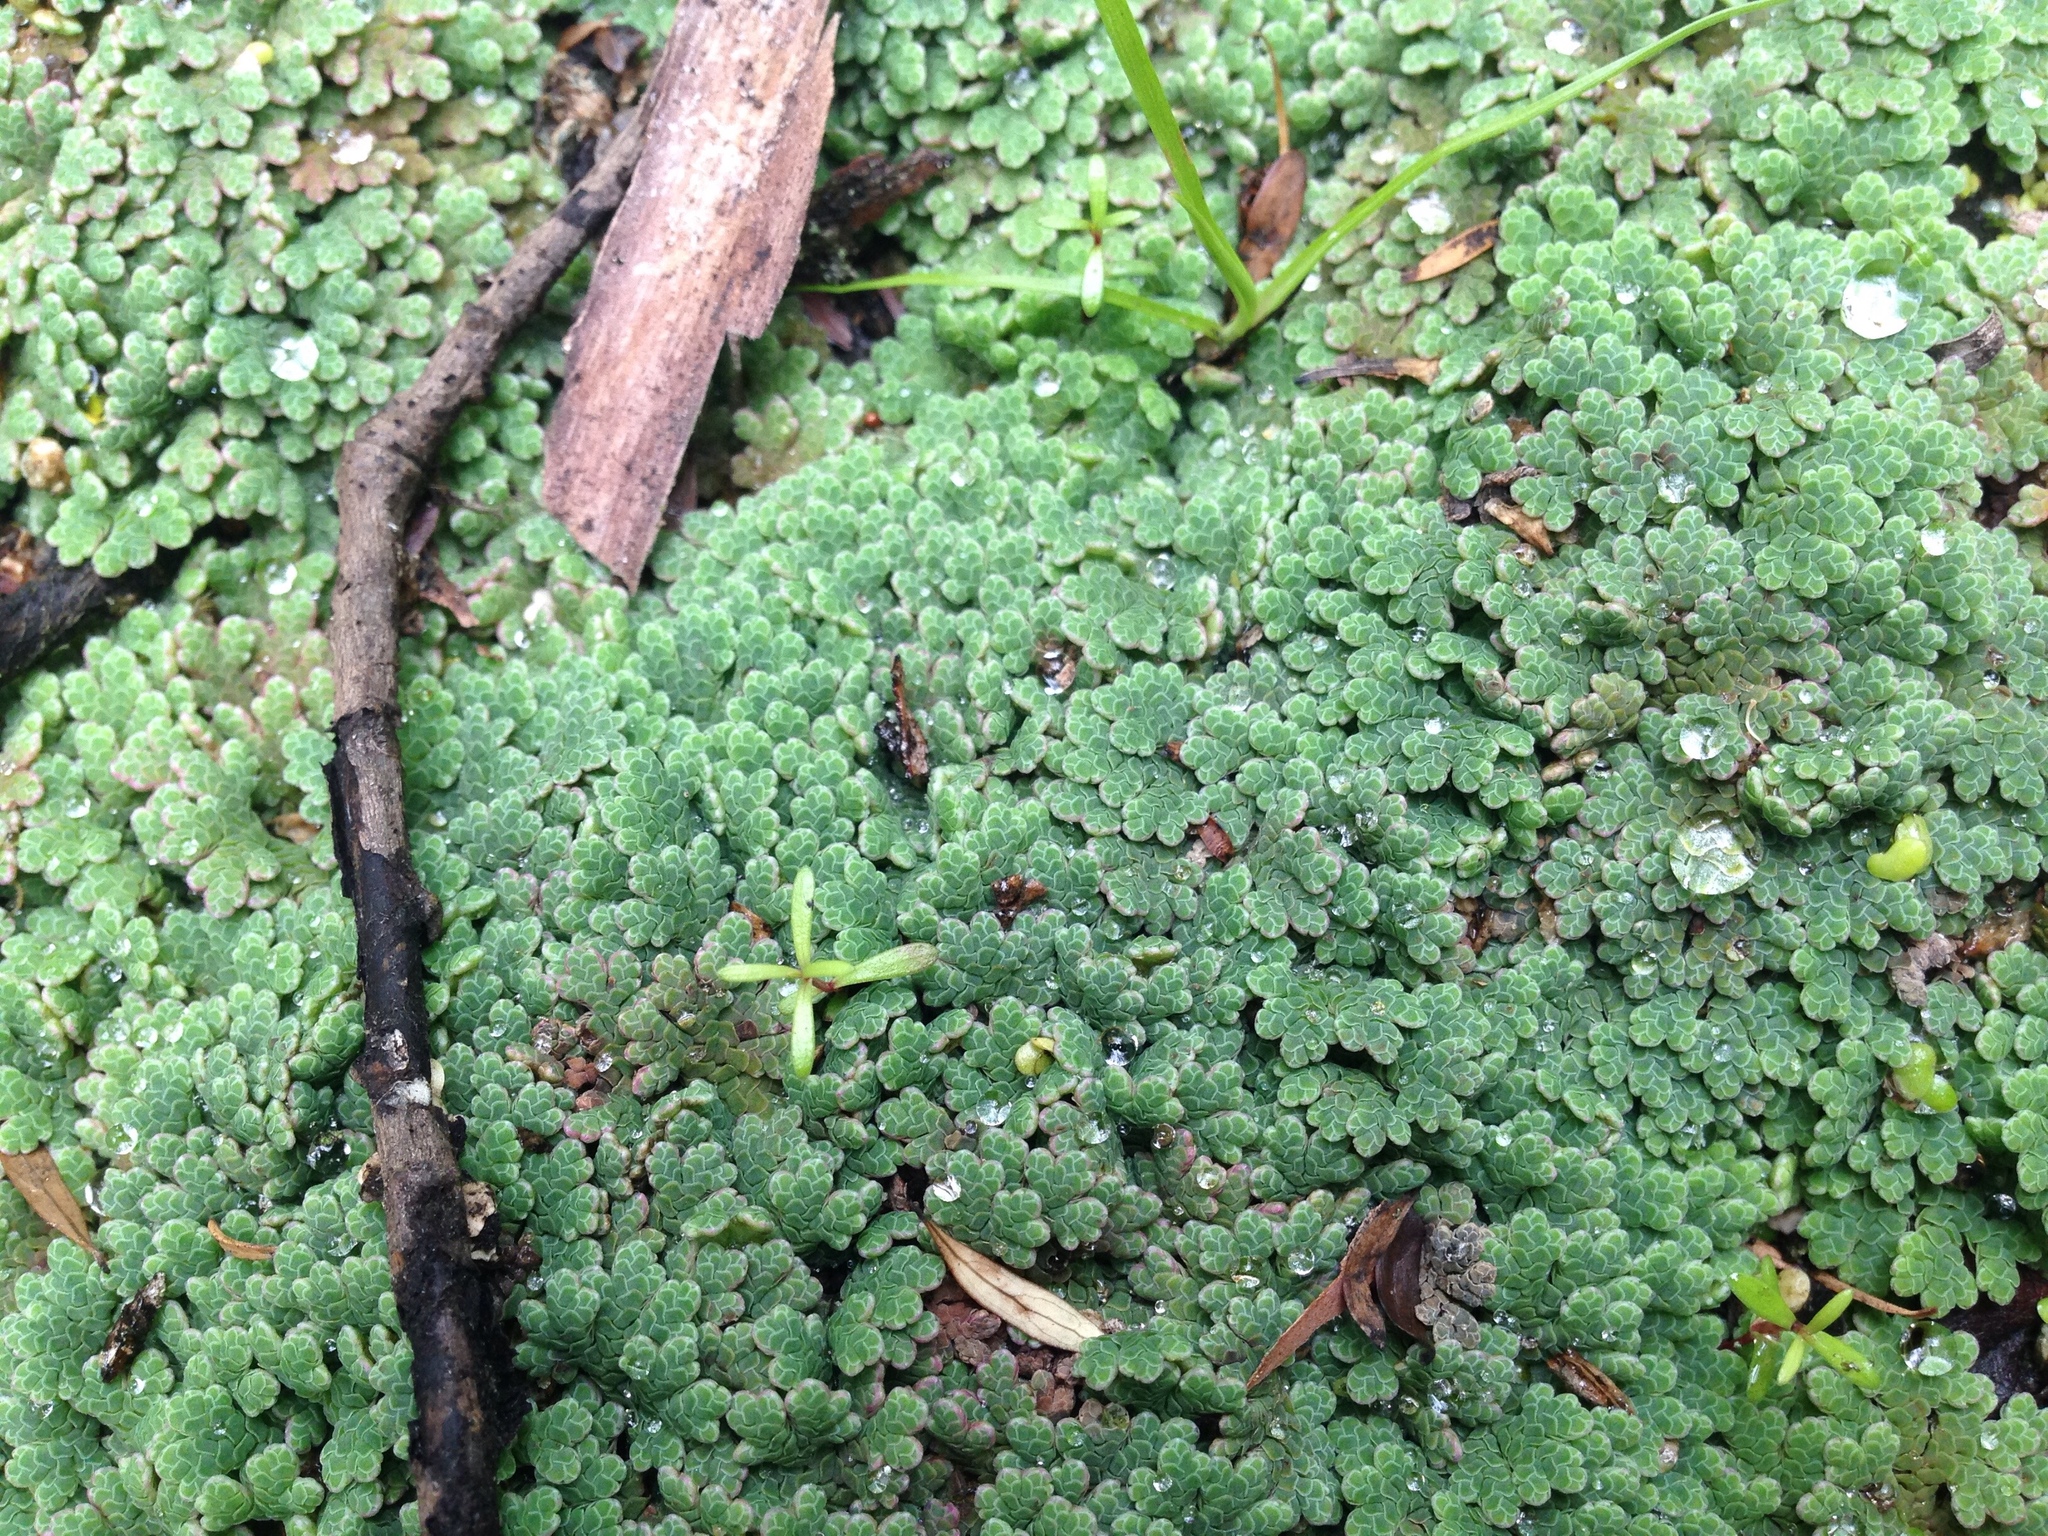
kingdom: Plantae
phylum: Tracheophyta
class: Polypodiopsida
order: Salviniales
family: Salviniaceae
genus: Azolla
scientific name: Azolla rubra
